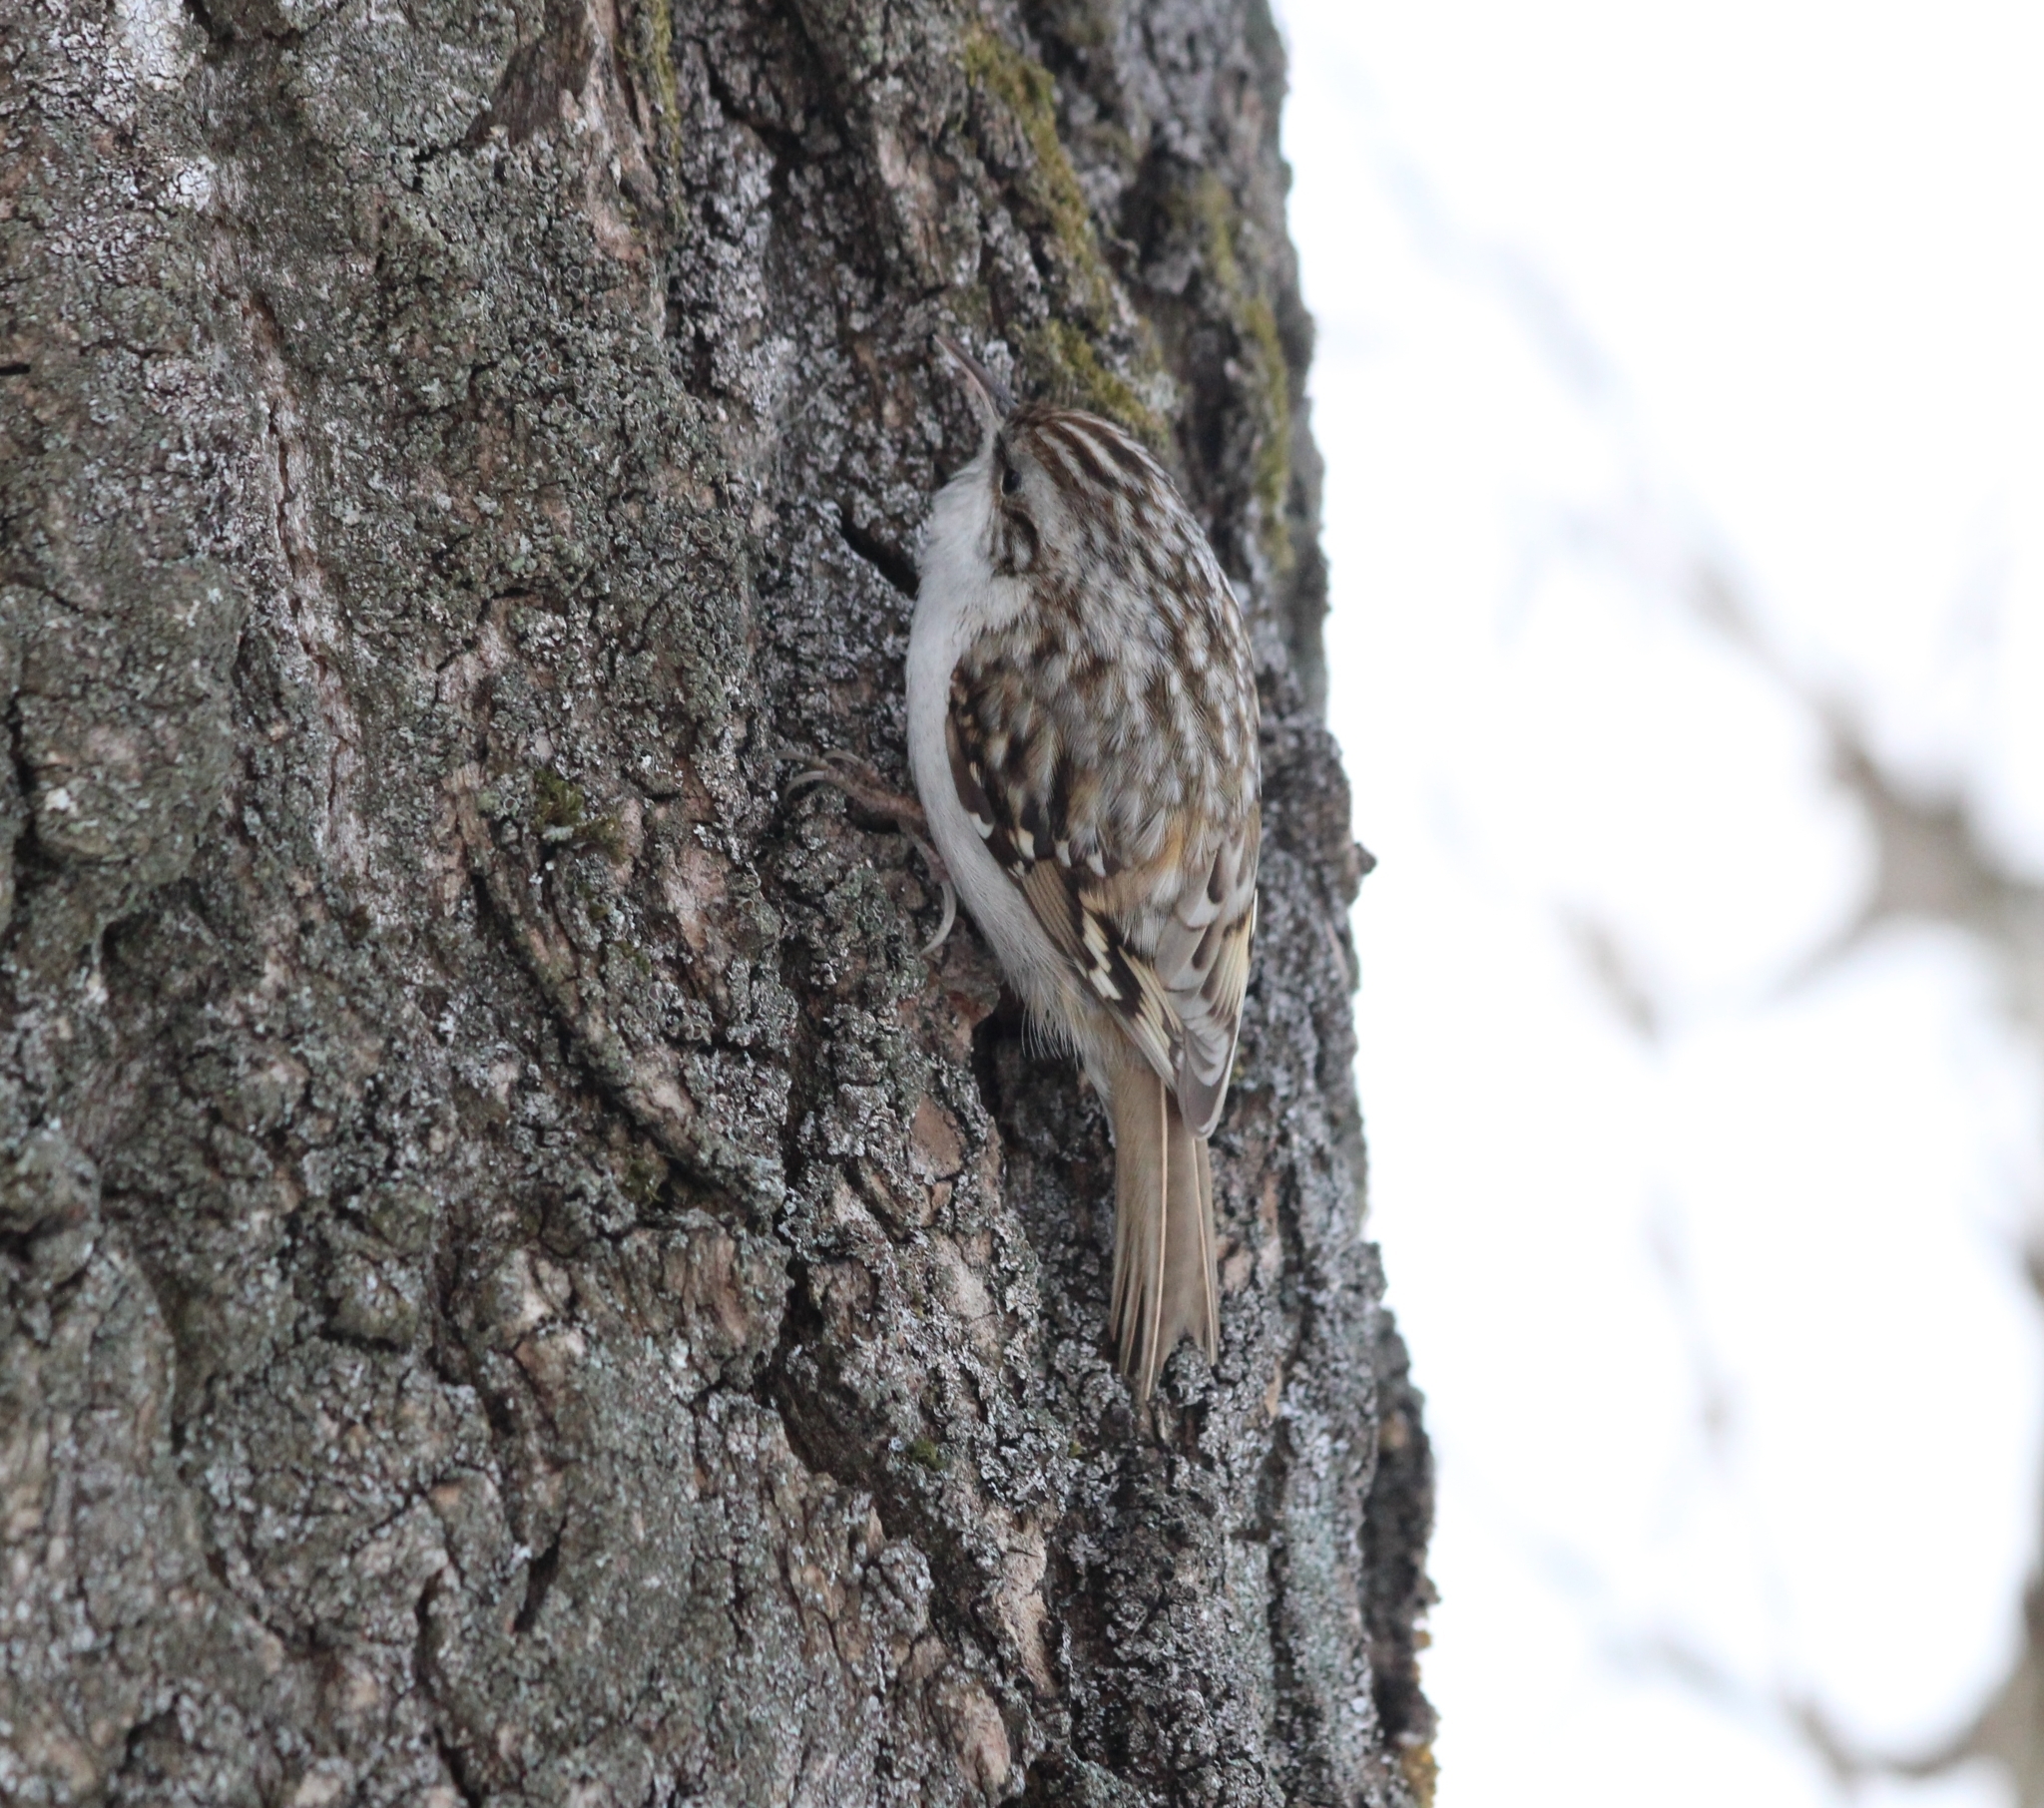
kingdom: Animalia
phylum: Chordata
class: Aves
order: Passeriformes
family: Certhiidae
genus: Certhia
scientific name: Certhia familiaris
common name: Eurasian treecreeper
